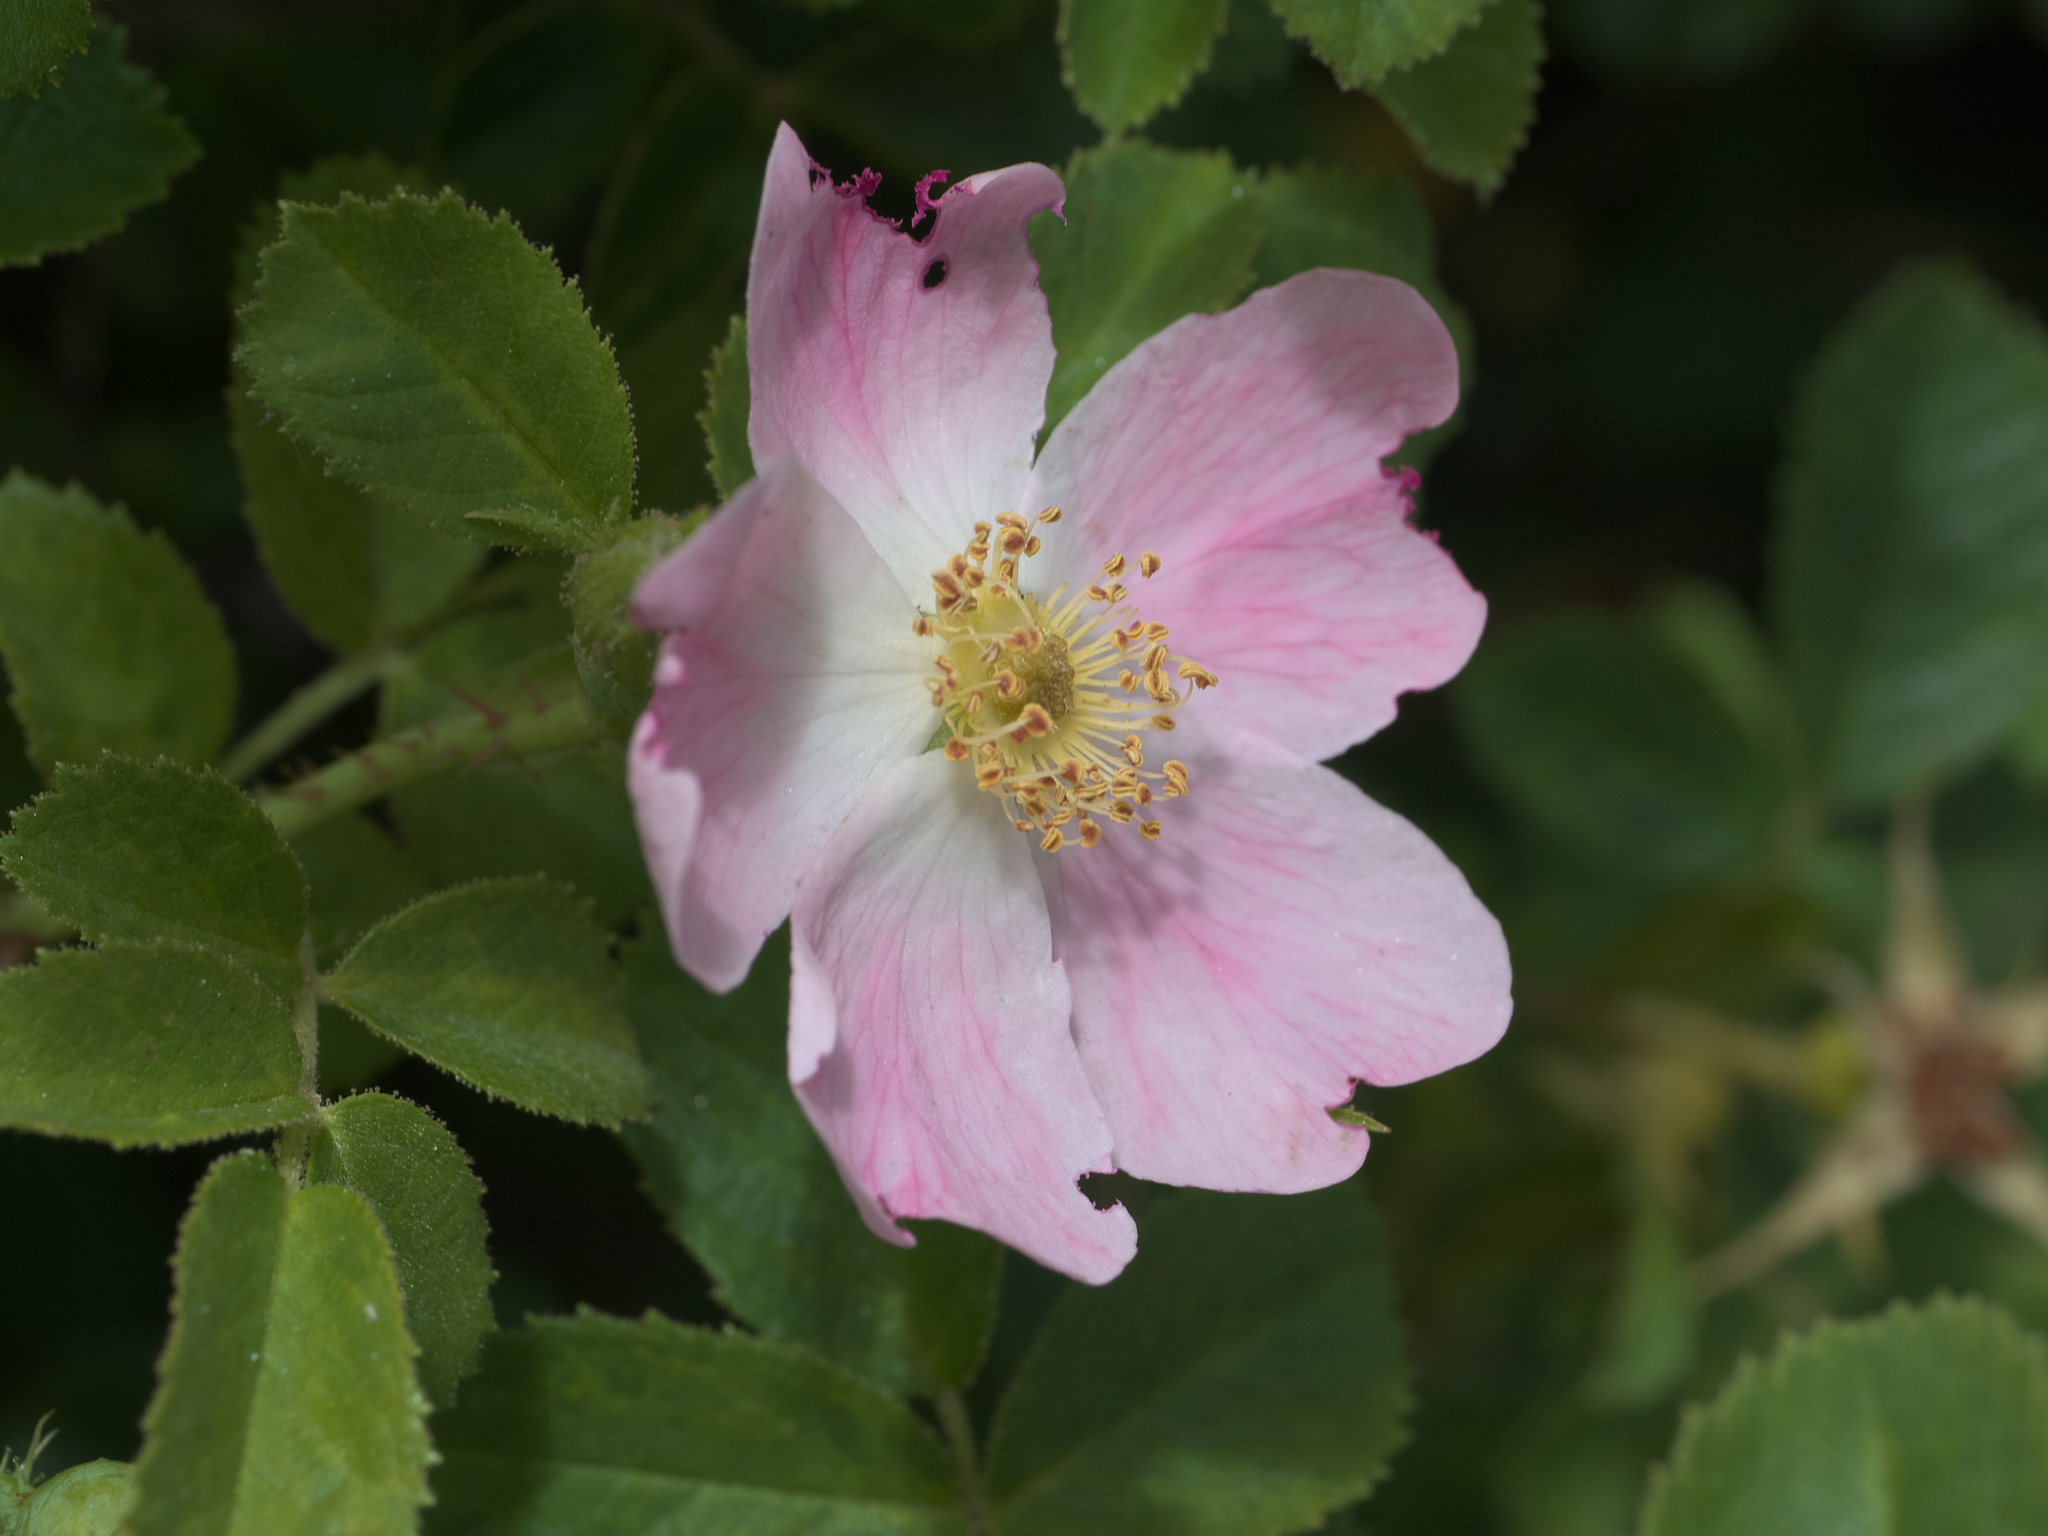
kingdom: Plantae
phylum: Tracheophyta
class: Magnoliopsida
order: Rosales
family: Rosaceae
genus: Rosa
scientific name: Rosa rubiginosa
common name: Sweet-briar
